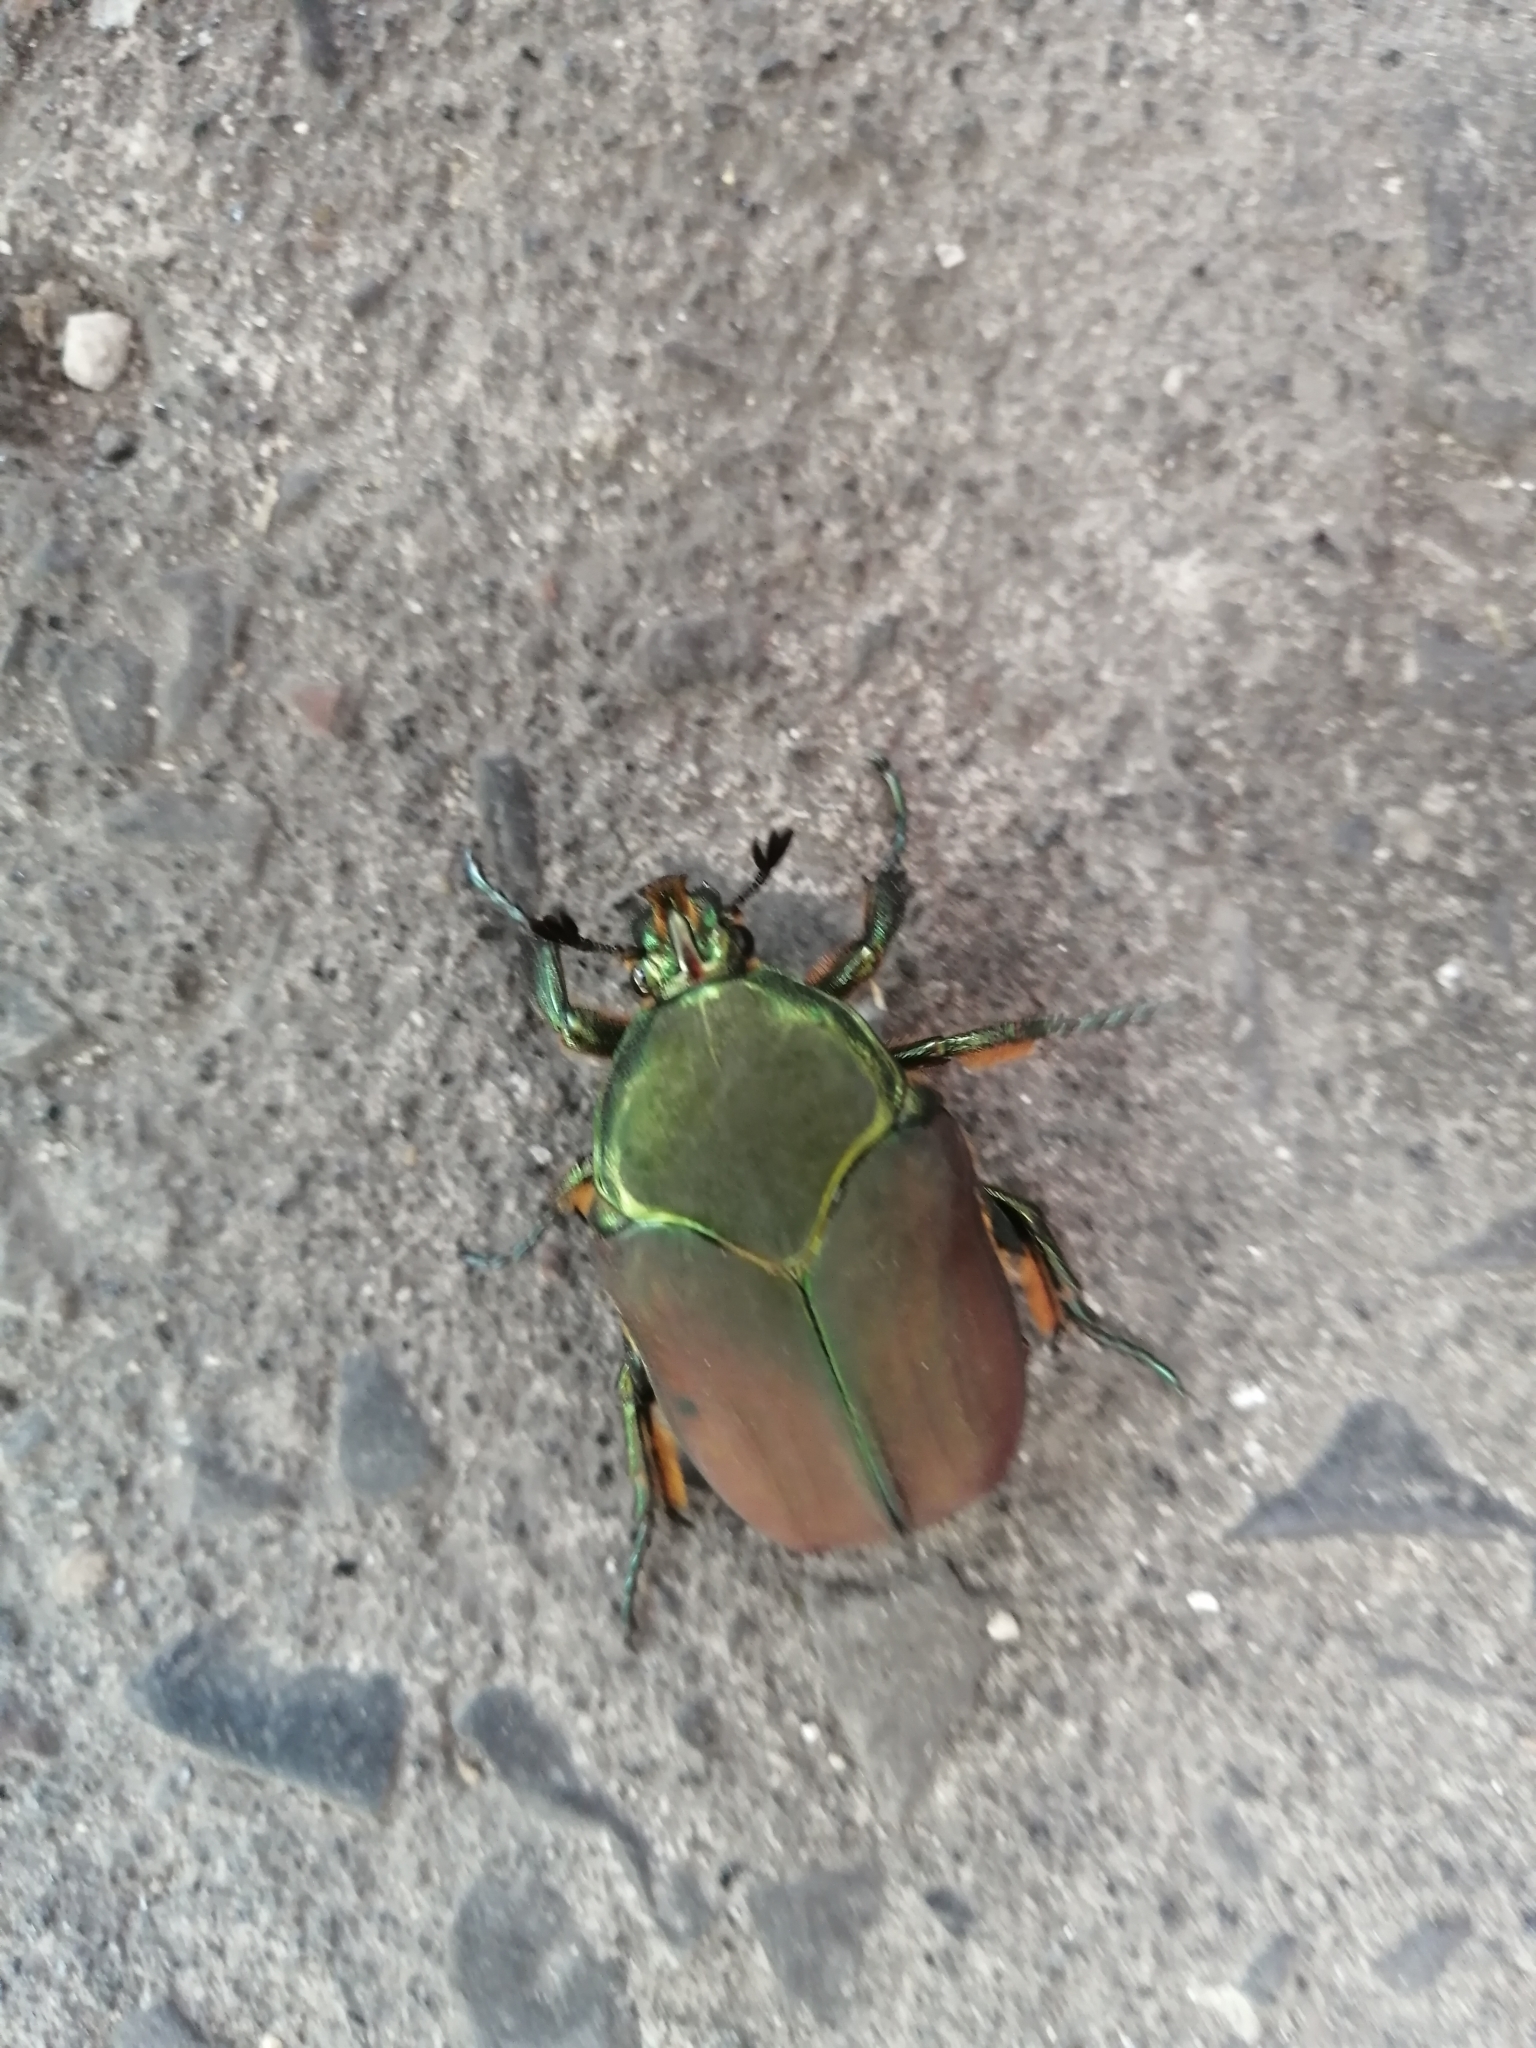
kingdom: Animalia
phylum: Arthropoda
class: Insecta
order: Coleoptera
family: Scarabaeidae
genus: Cotinis
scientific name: Cotinis laticornis
